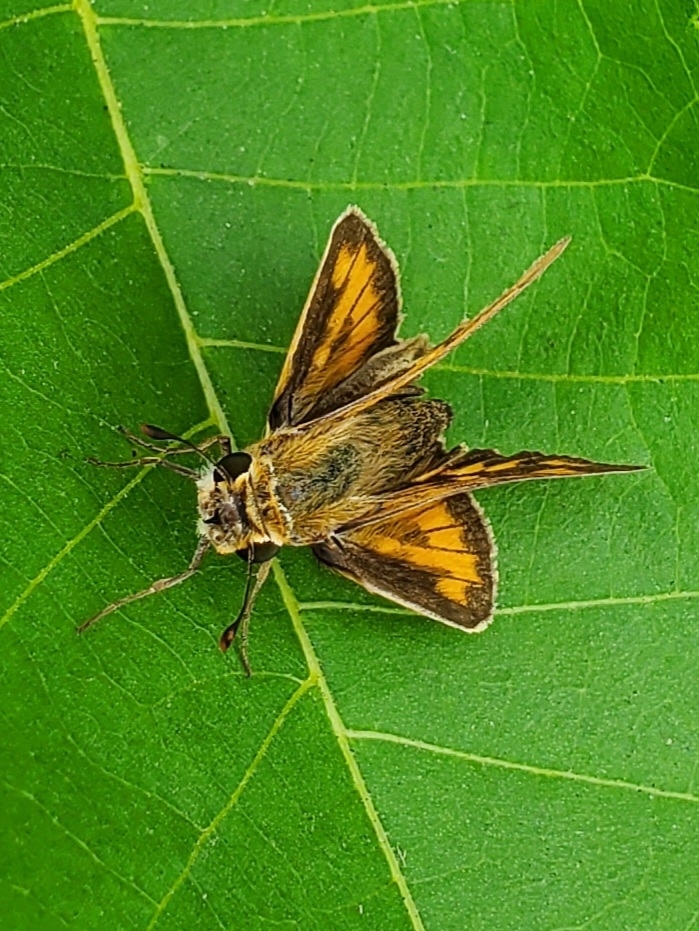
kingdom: Animalia
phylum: Arthropoda
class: Insecta
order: Lepidoptera
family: Hesperiidae
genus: Hylephila
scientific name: Hylephila phyleus
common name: Fiery skipper
